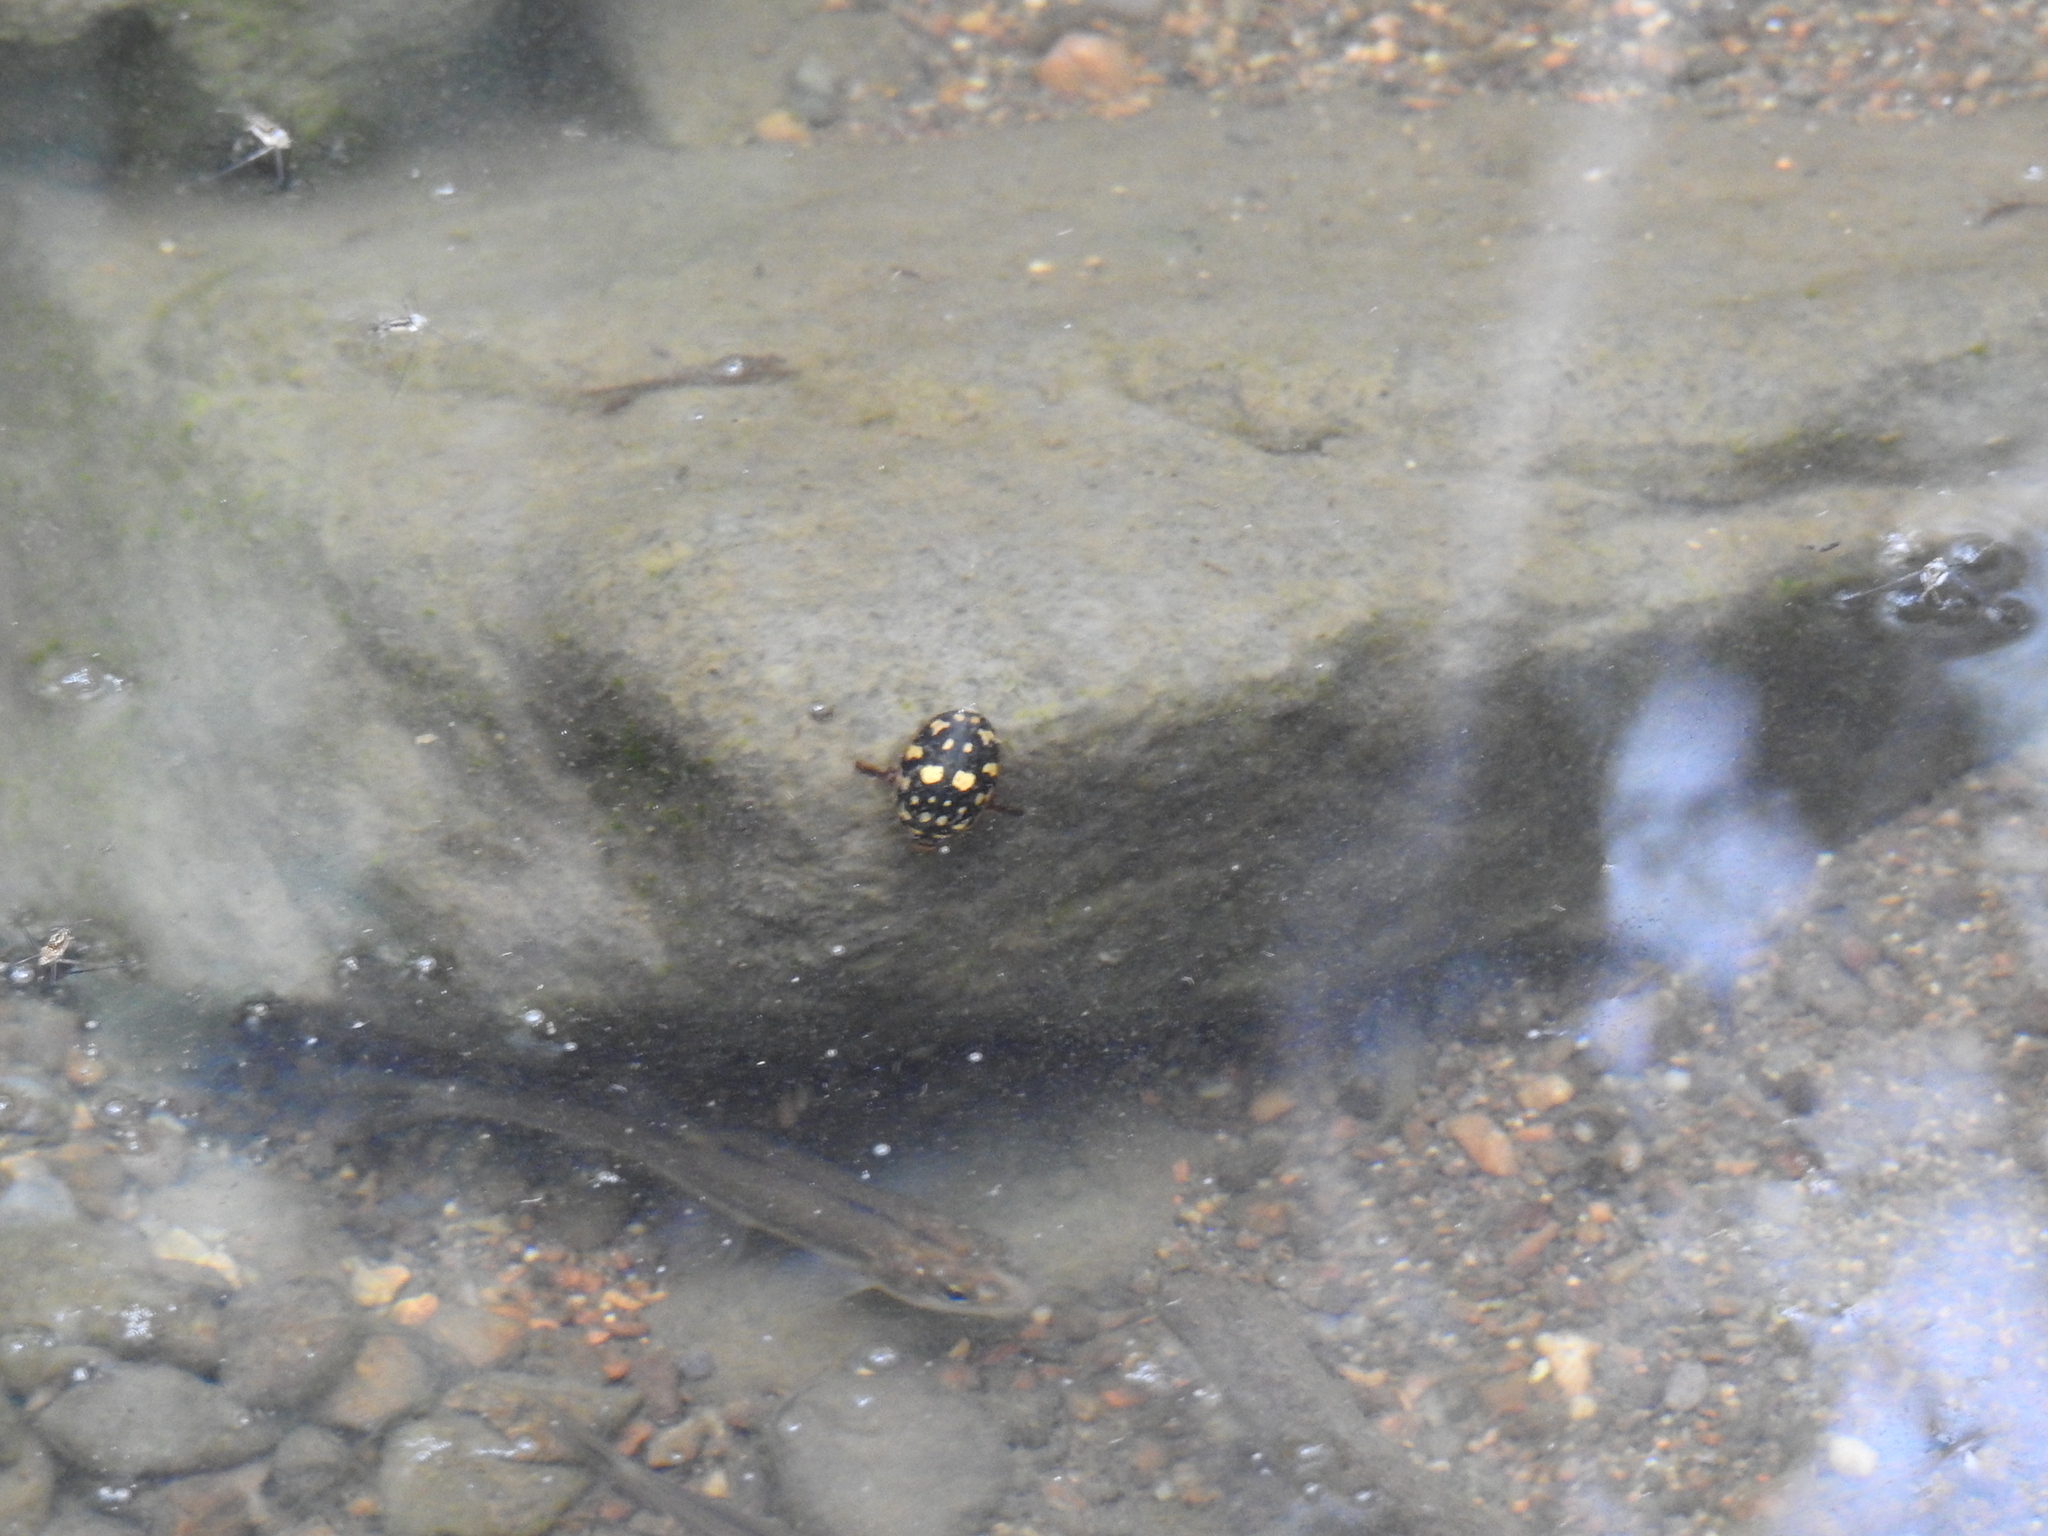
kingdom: Animalia
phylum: Arthropoda
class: Insecta
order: Coleoptera
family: Dytiscidae
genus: Thermonectus
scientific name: Thermonectus marmoratus
